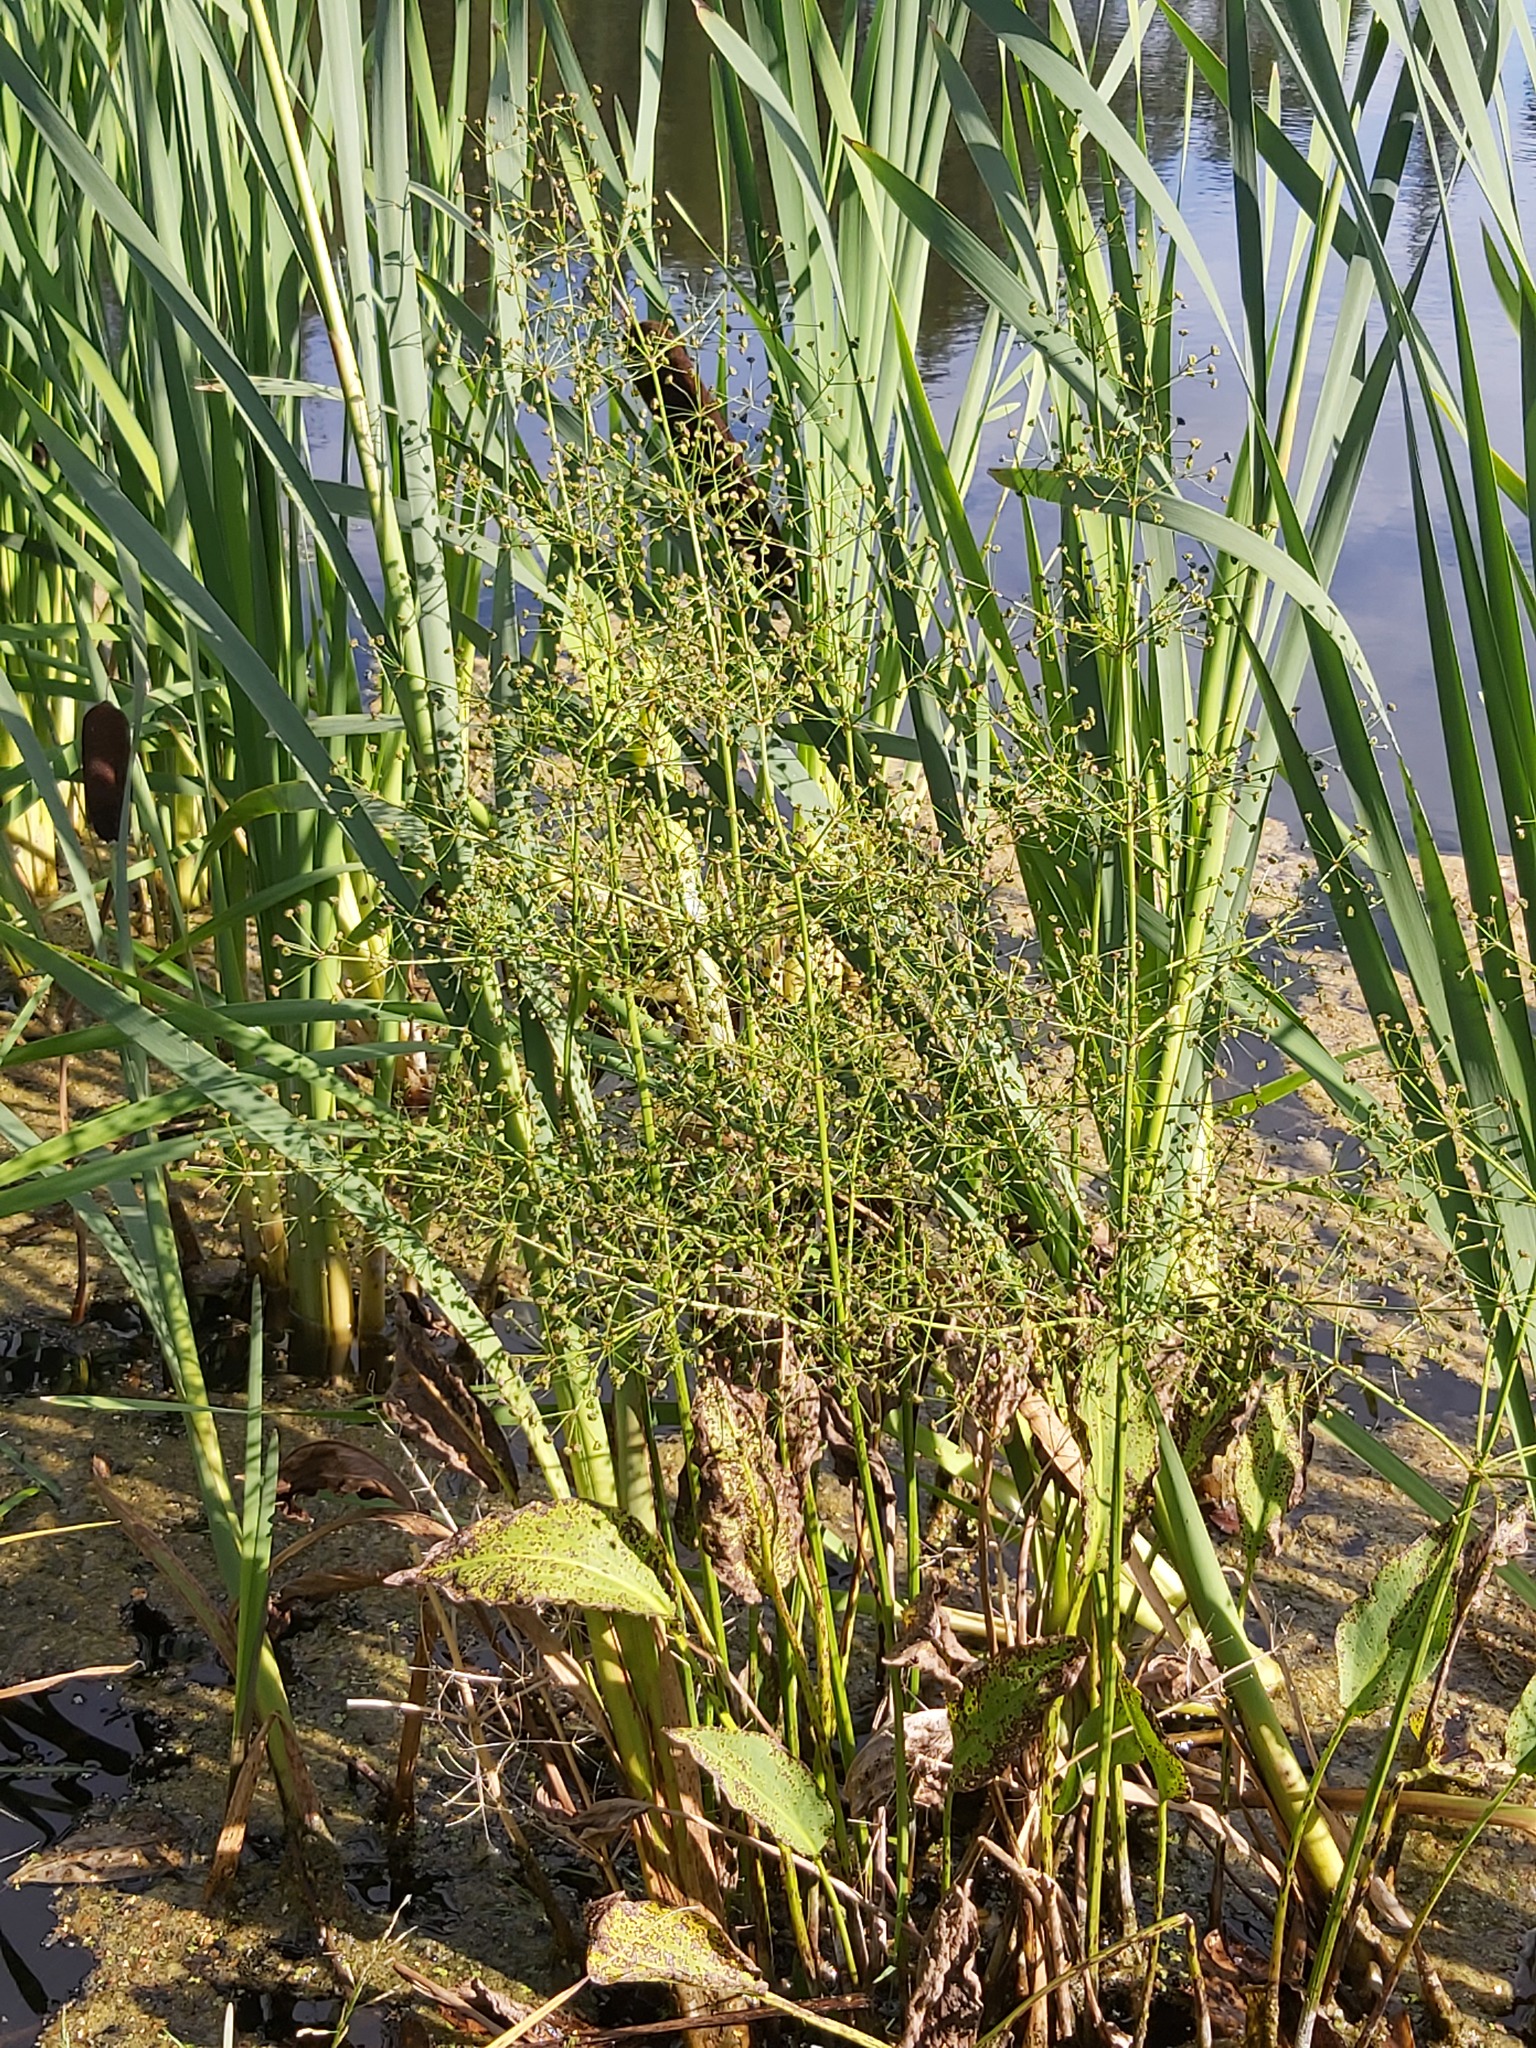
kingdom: Plantae
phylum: Tracheophyta
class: Liliopsida
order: Alismatales
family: Alismataceae
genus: Alisma
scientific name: Alisma plantago-aquatica
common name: Water-plantain
